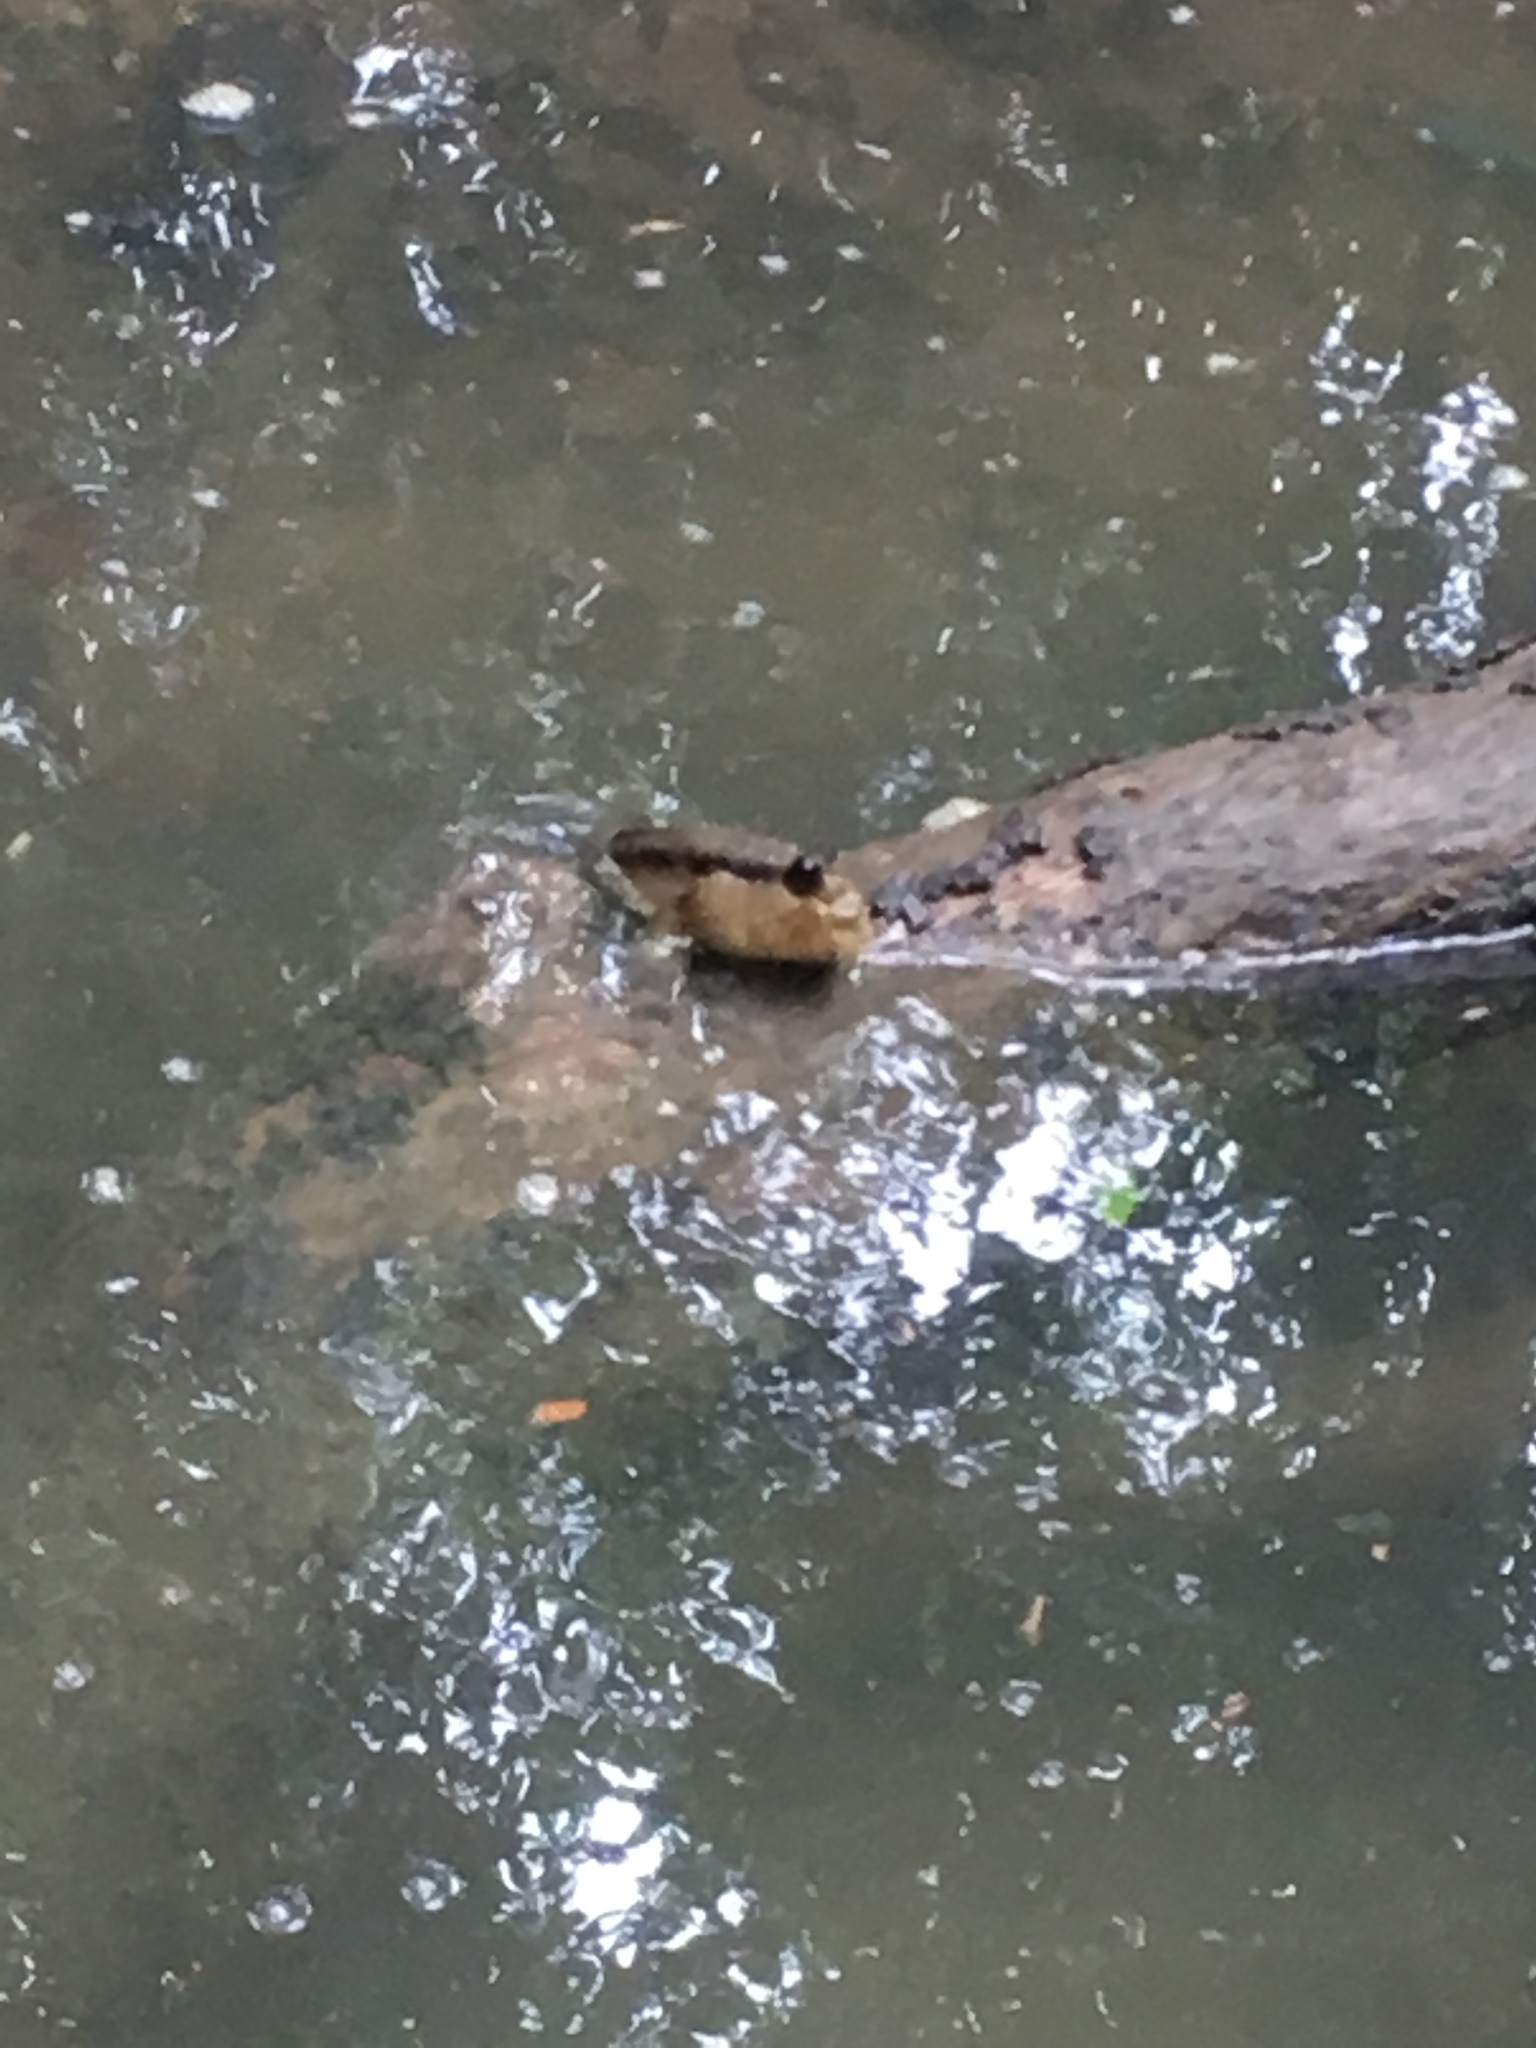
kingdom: Animalia
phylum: Chordata
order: Perciformes
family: Gobiidae
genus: Periophthalmodon
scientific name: Periophthalmodon schlosseri
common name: Giant mudskipper
